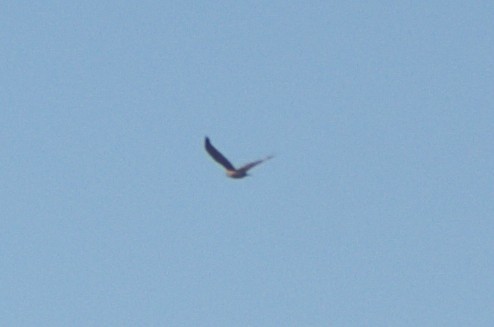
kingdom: Animalia
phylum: Chordata
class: Aves
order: Accipitriformes
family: Accipitridae
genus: Circus
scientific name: Circus approximans
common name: Swamp harrier
